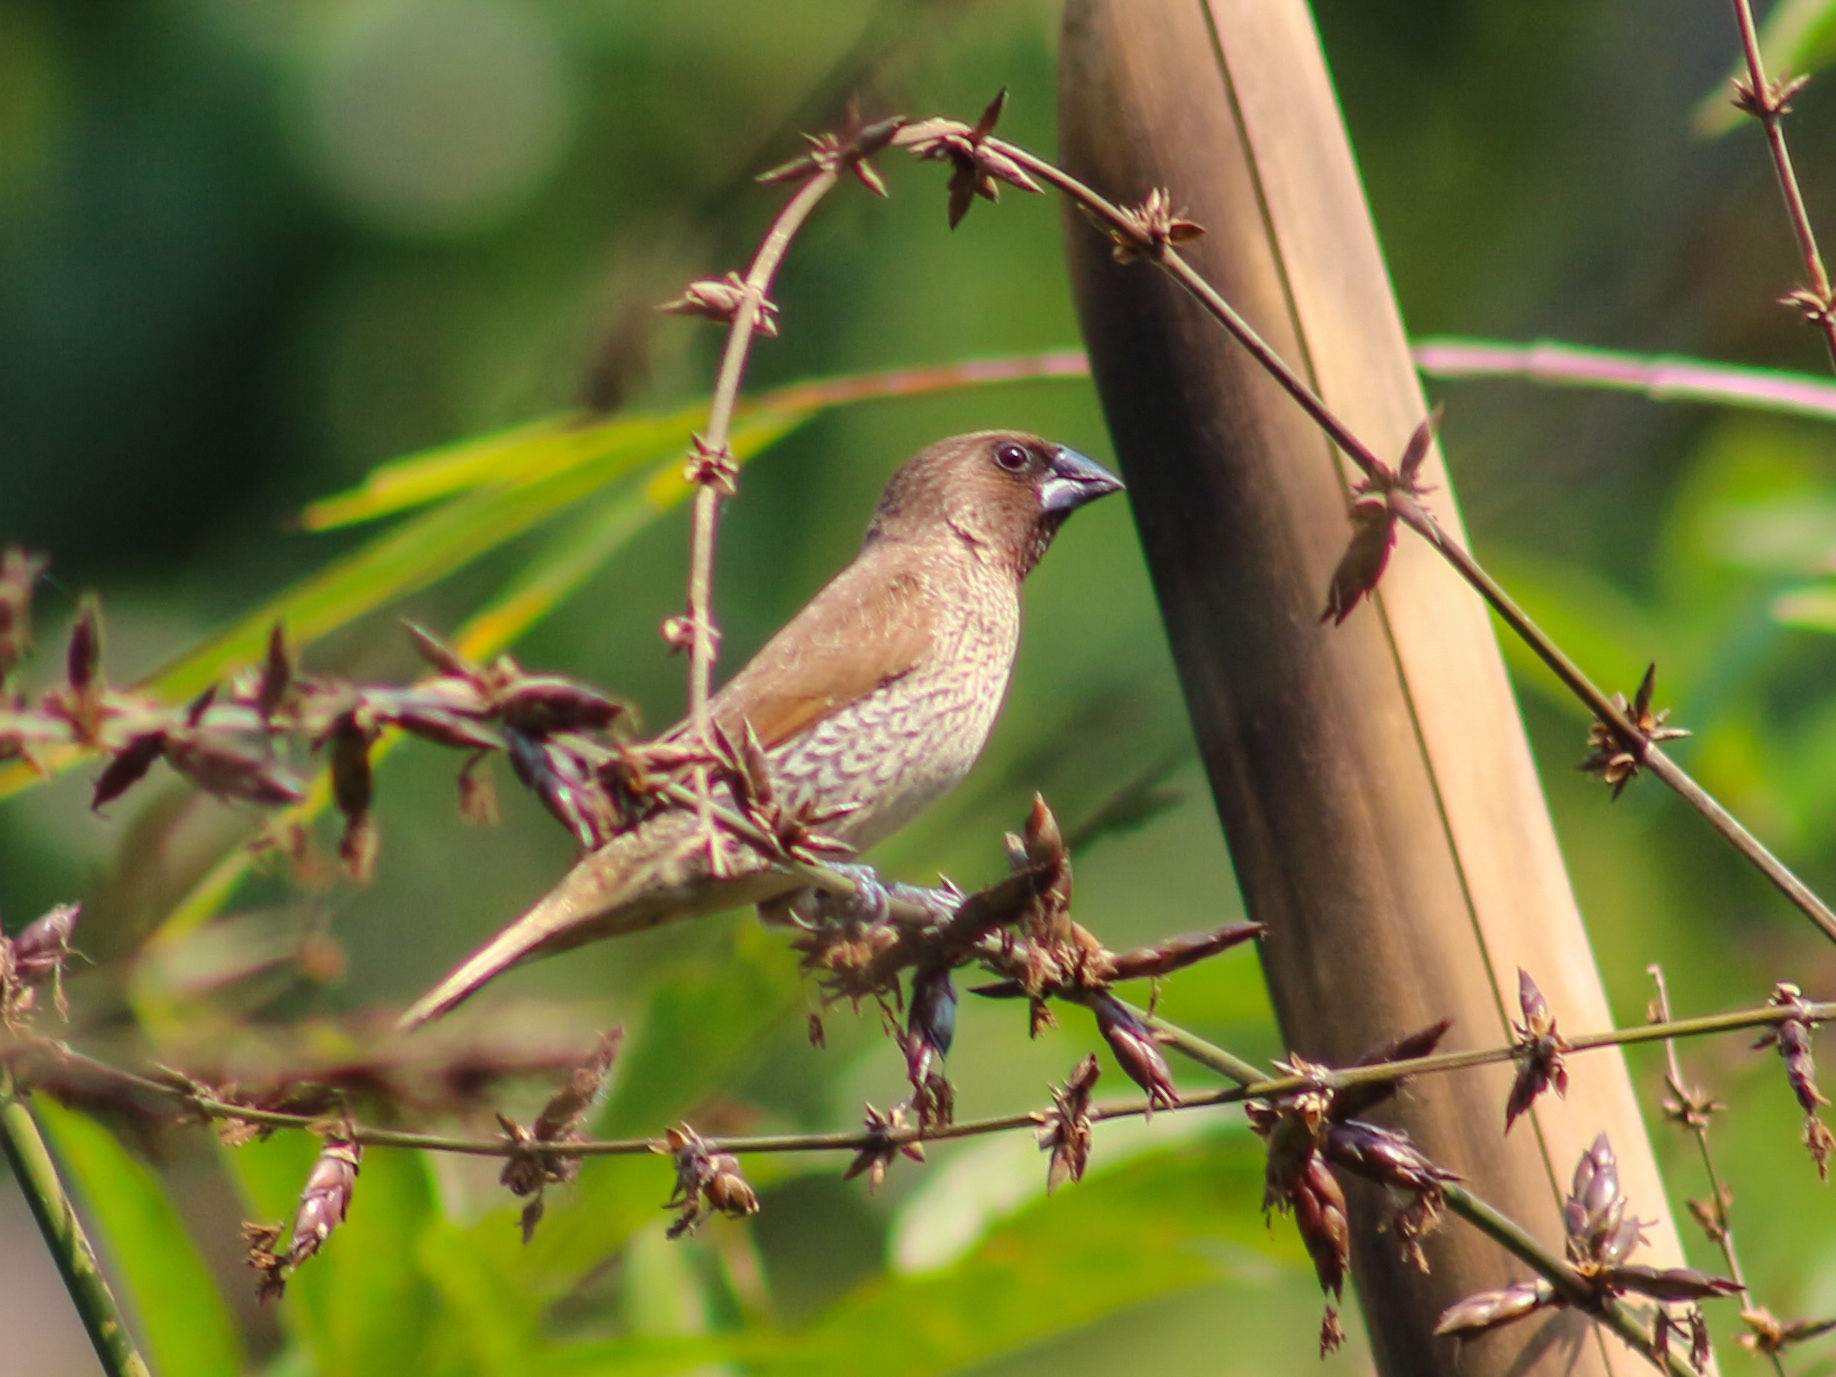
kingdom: Animalia
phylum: Chordata
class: Aves
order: Passeriformes
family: Estrildidae
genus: Lonchura
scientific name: Lonchura punctulata
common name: Scaly-breasted munia
